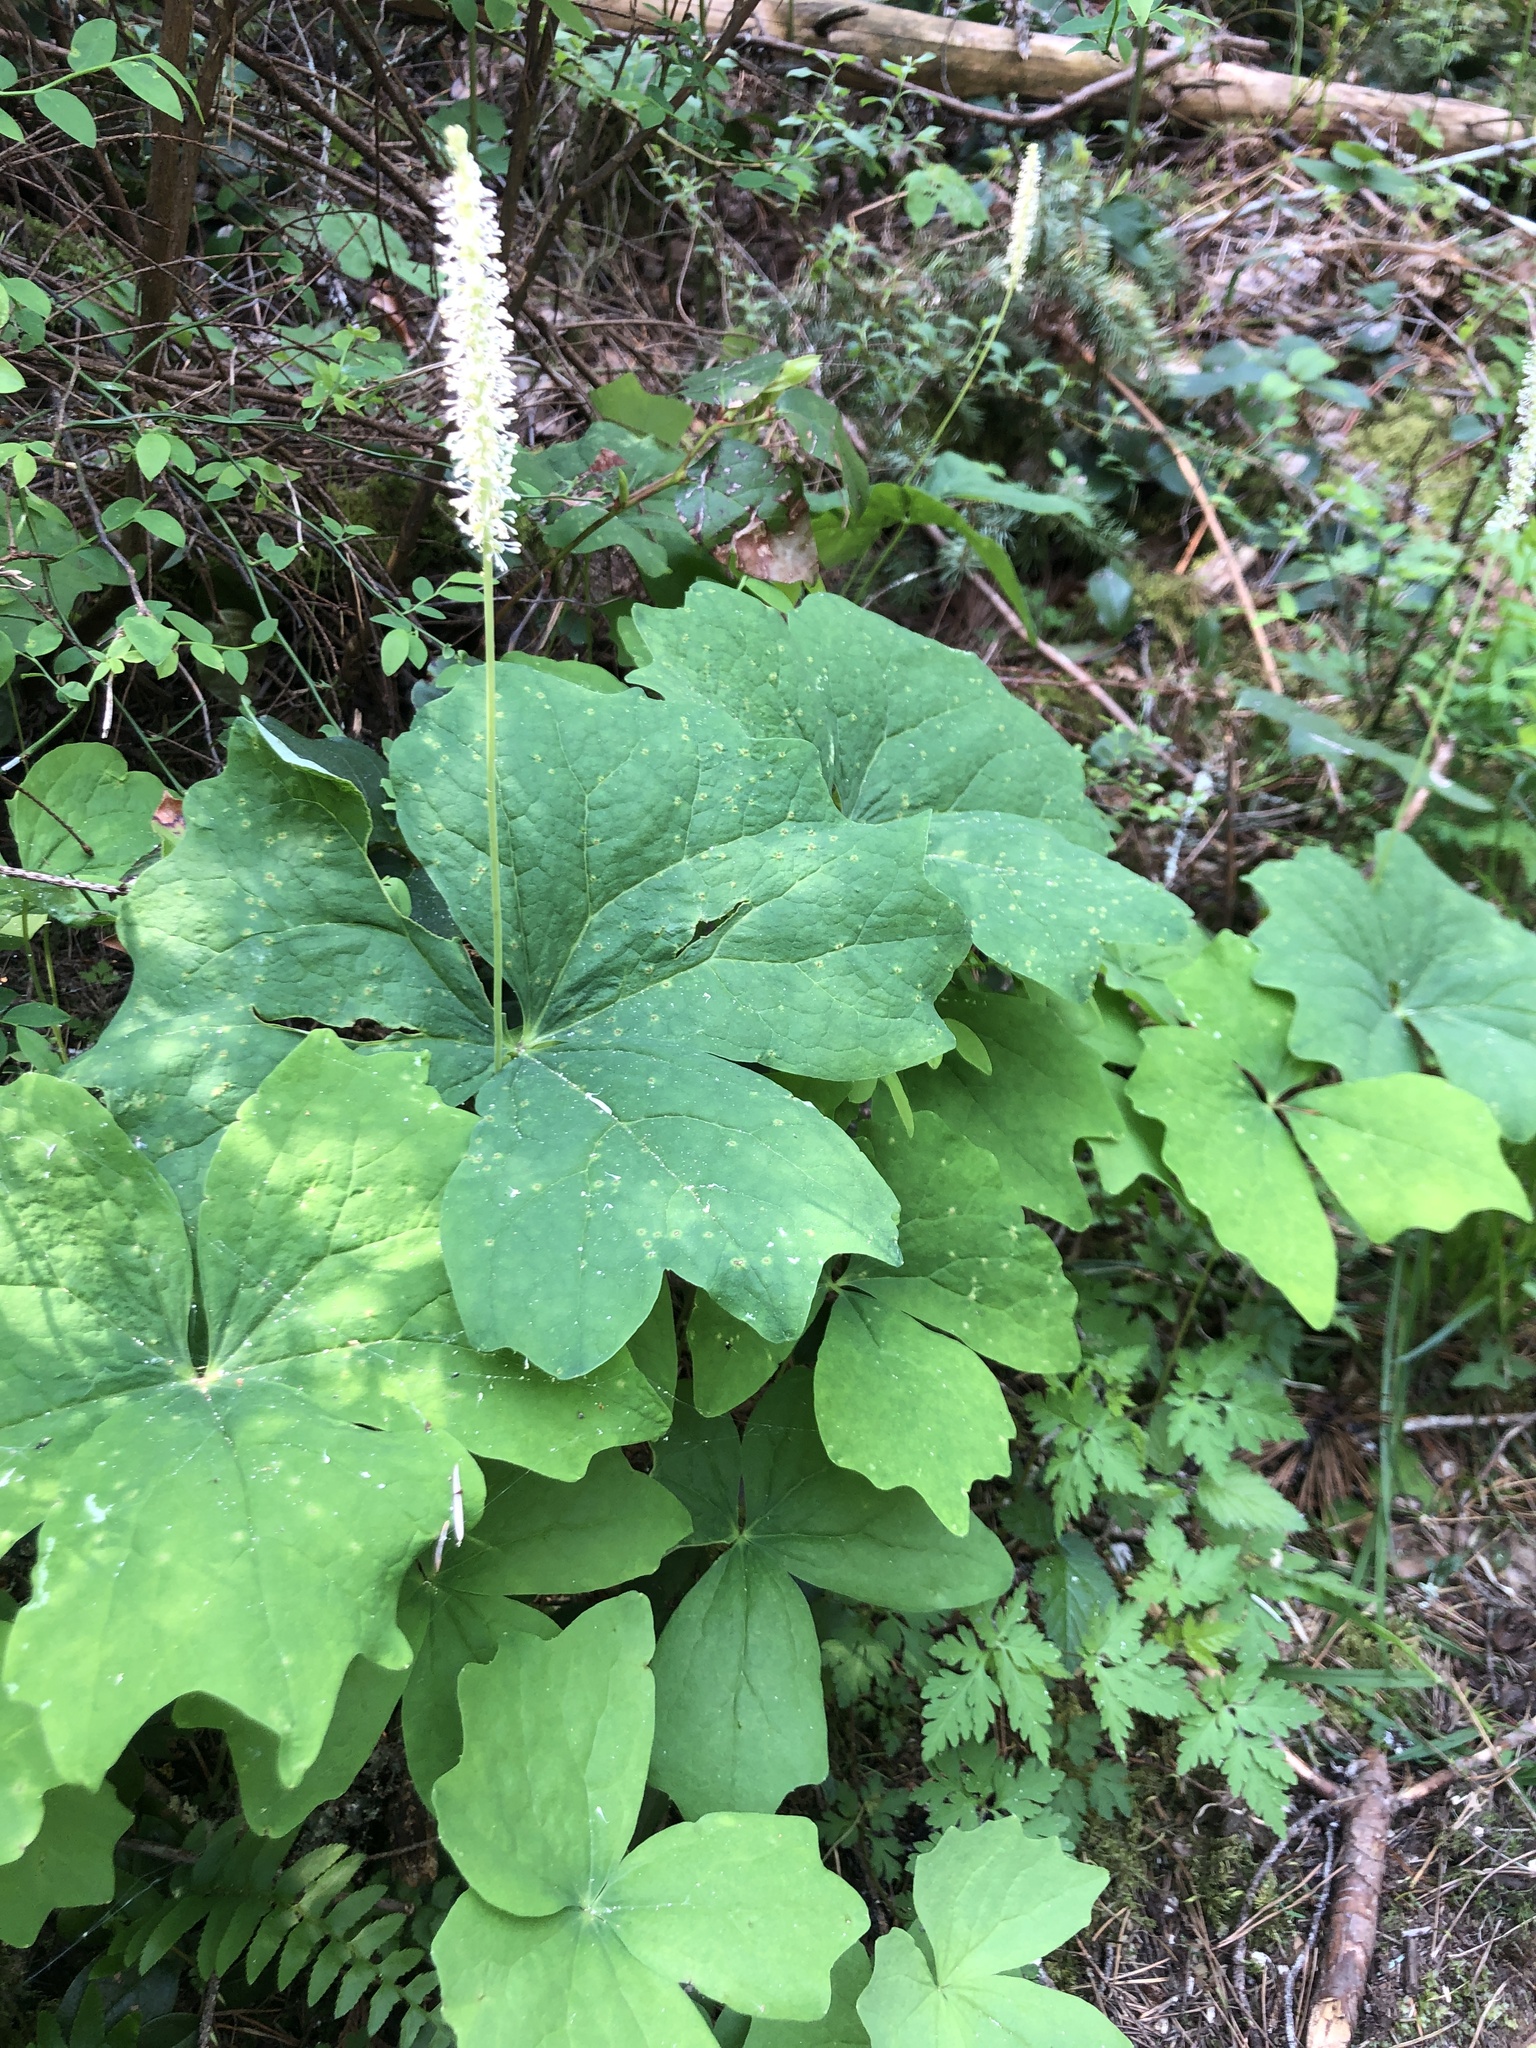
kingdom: Plantae
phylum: Tracheophyta
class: Magnoliopsida
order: Ranunculales
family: Berberidaceae
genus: Achlys
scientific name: Achlys triphylla
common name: Vanilla-leaf
